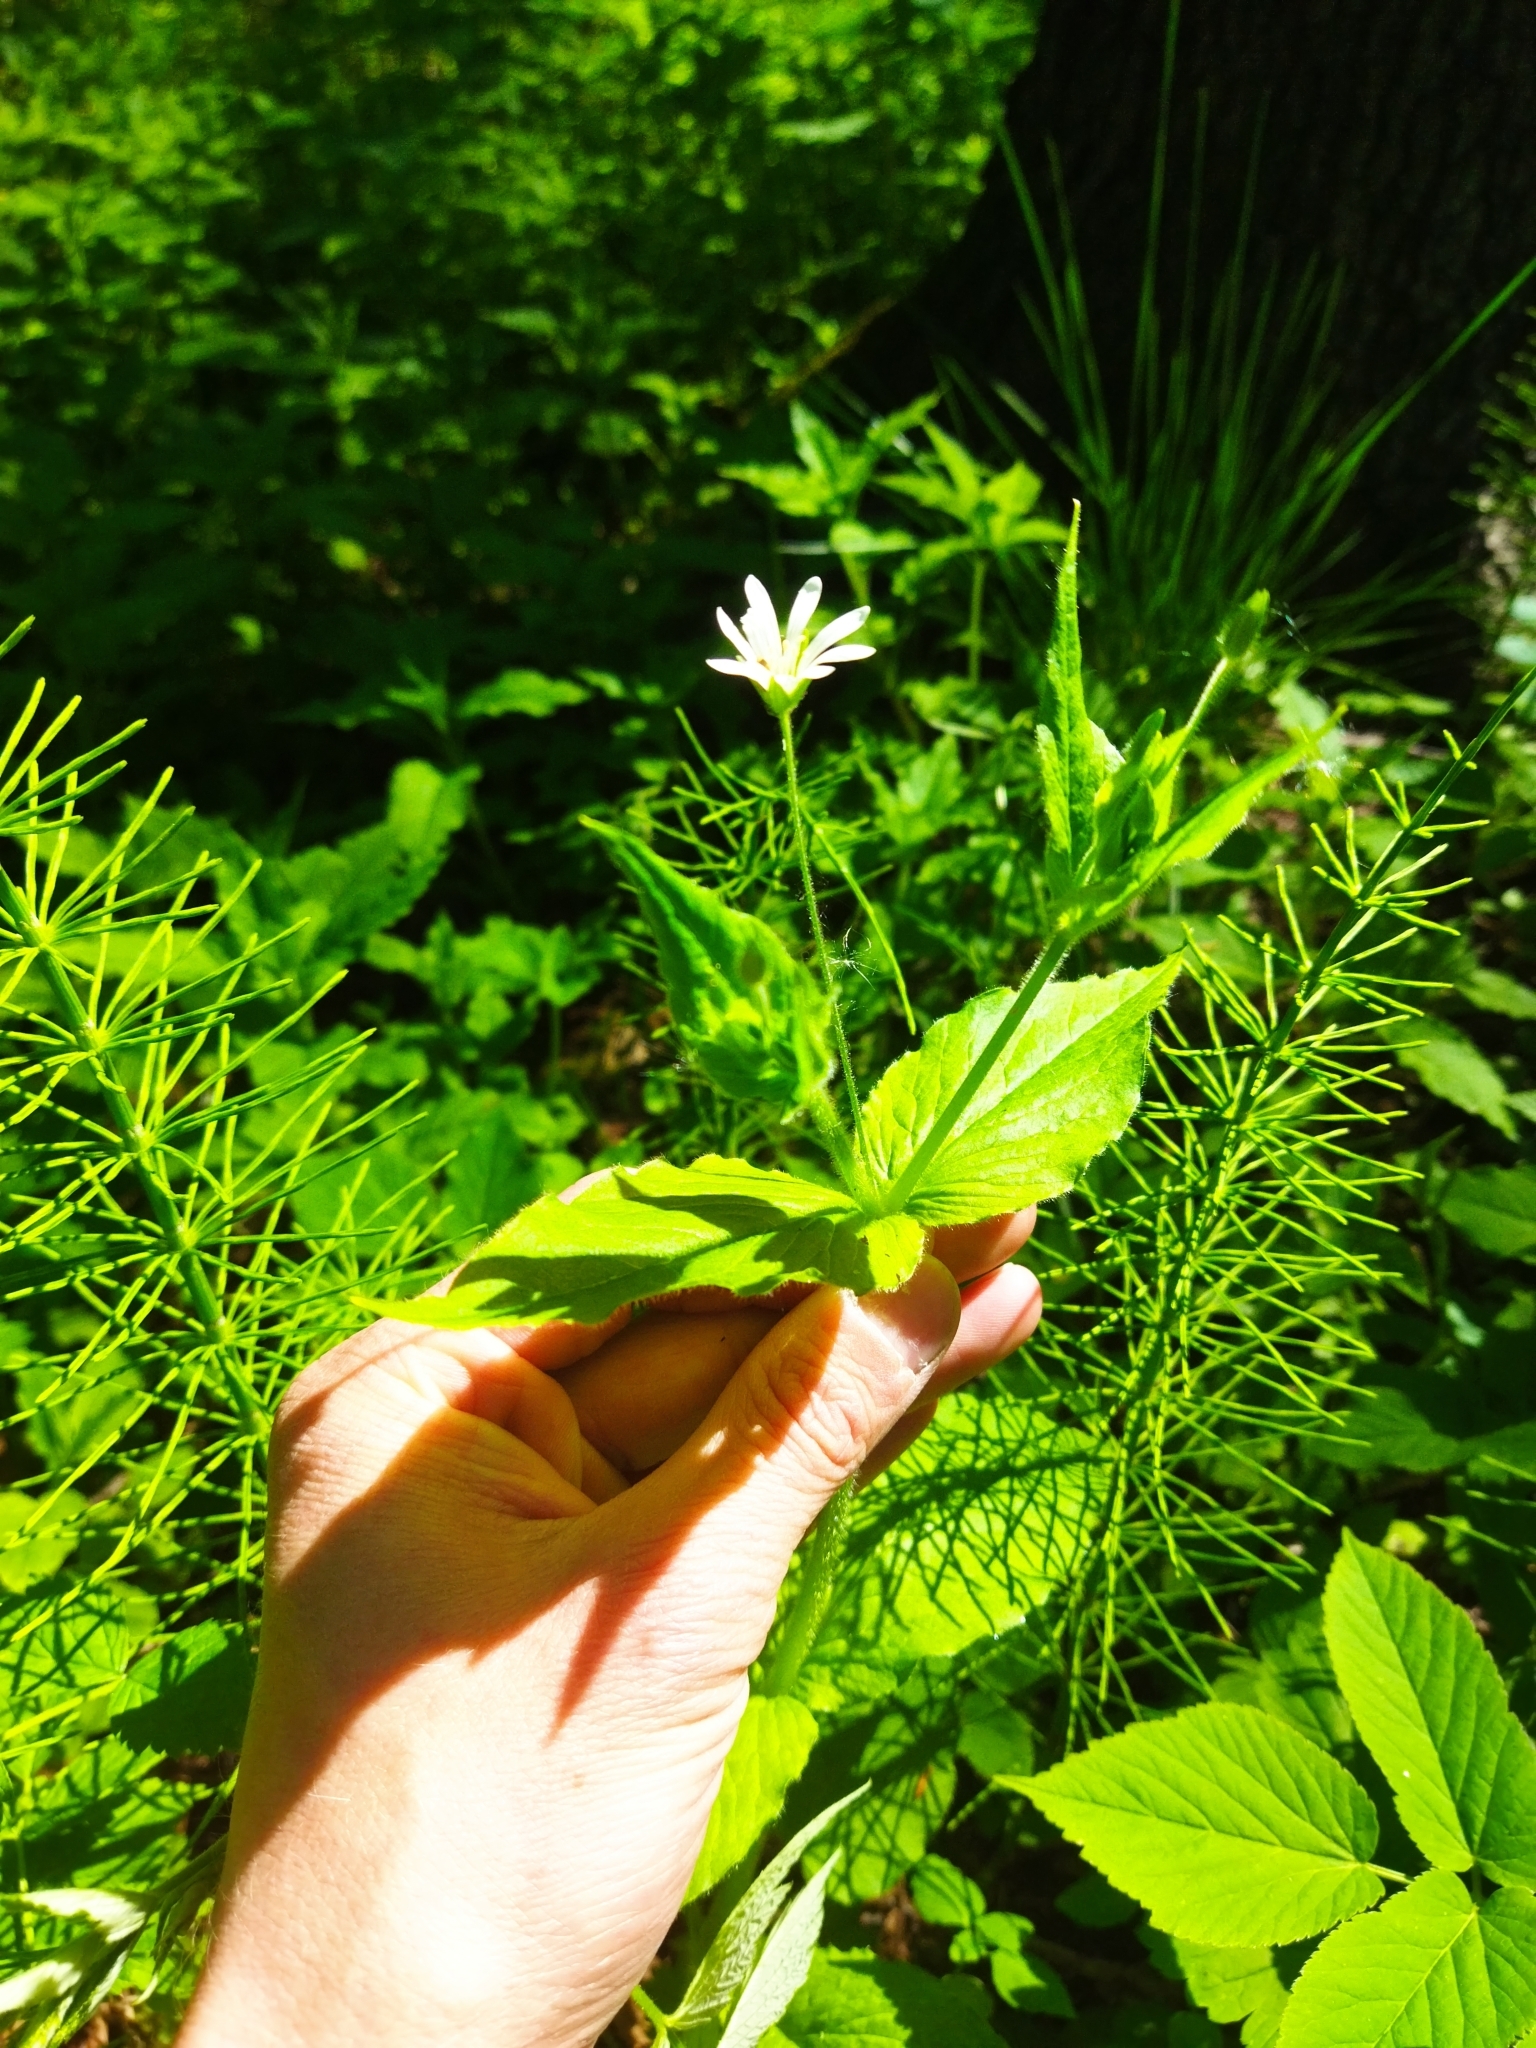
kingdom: Plantae
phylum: Tracheophyta
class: Magnoliopsida
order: Caryophyllales
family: Caryophyllaceae
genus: Stellaria
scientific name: Stellaria nemorum
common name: Wood stitchwort
